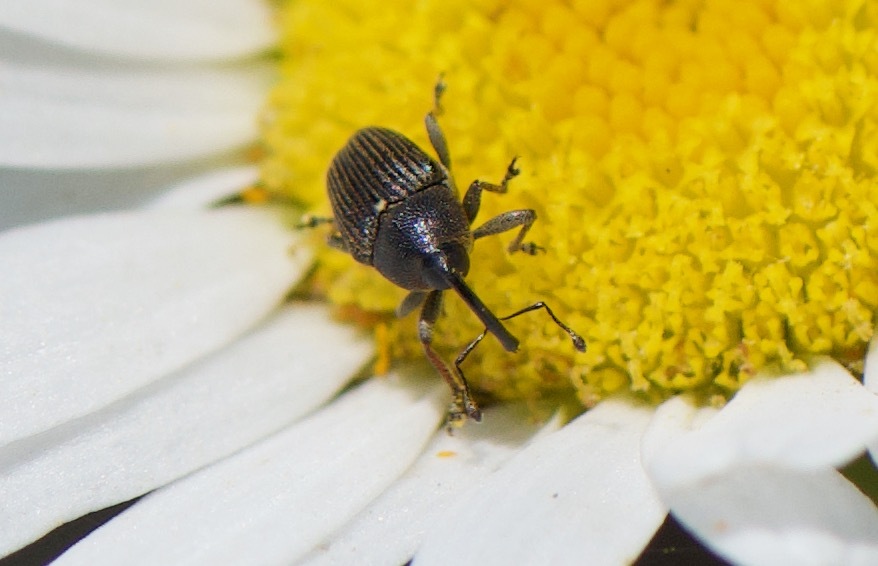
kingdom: Animalia
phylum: Arthropoda
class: Insecta
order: Coleoptera
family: Curculionidae
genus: Odontocorynus
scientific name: Odontocorynus umbellae
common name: Daisy flower weevil
